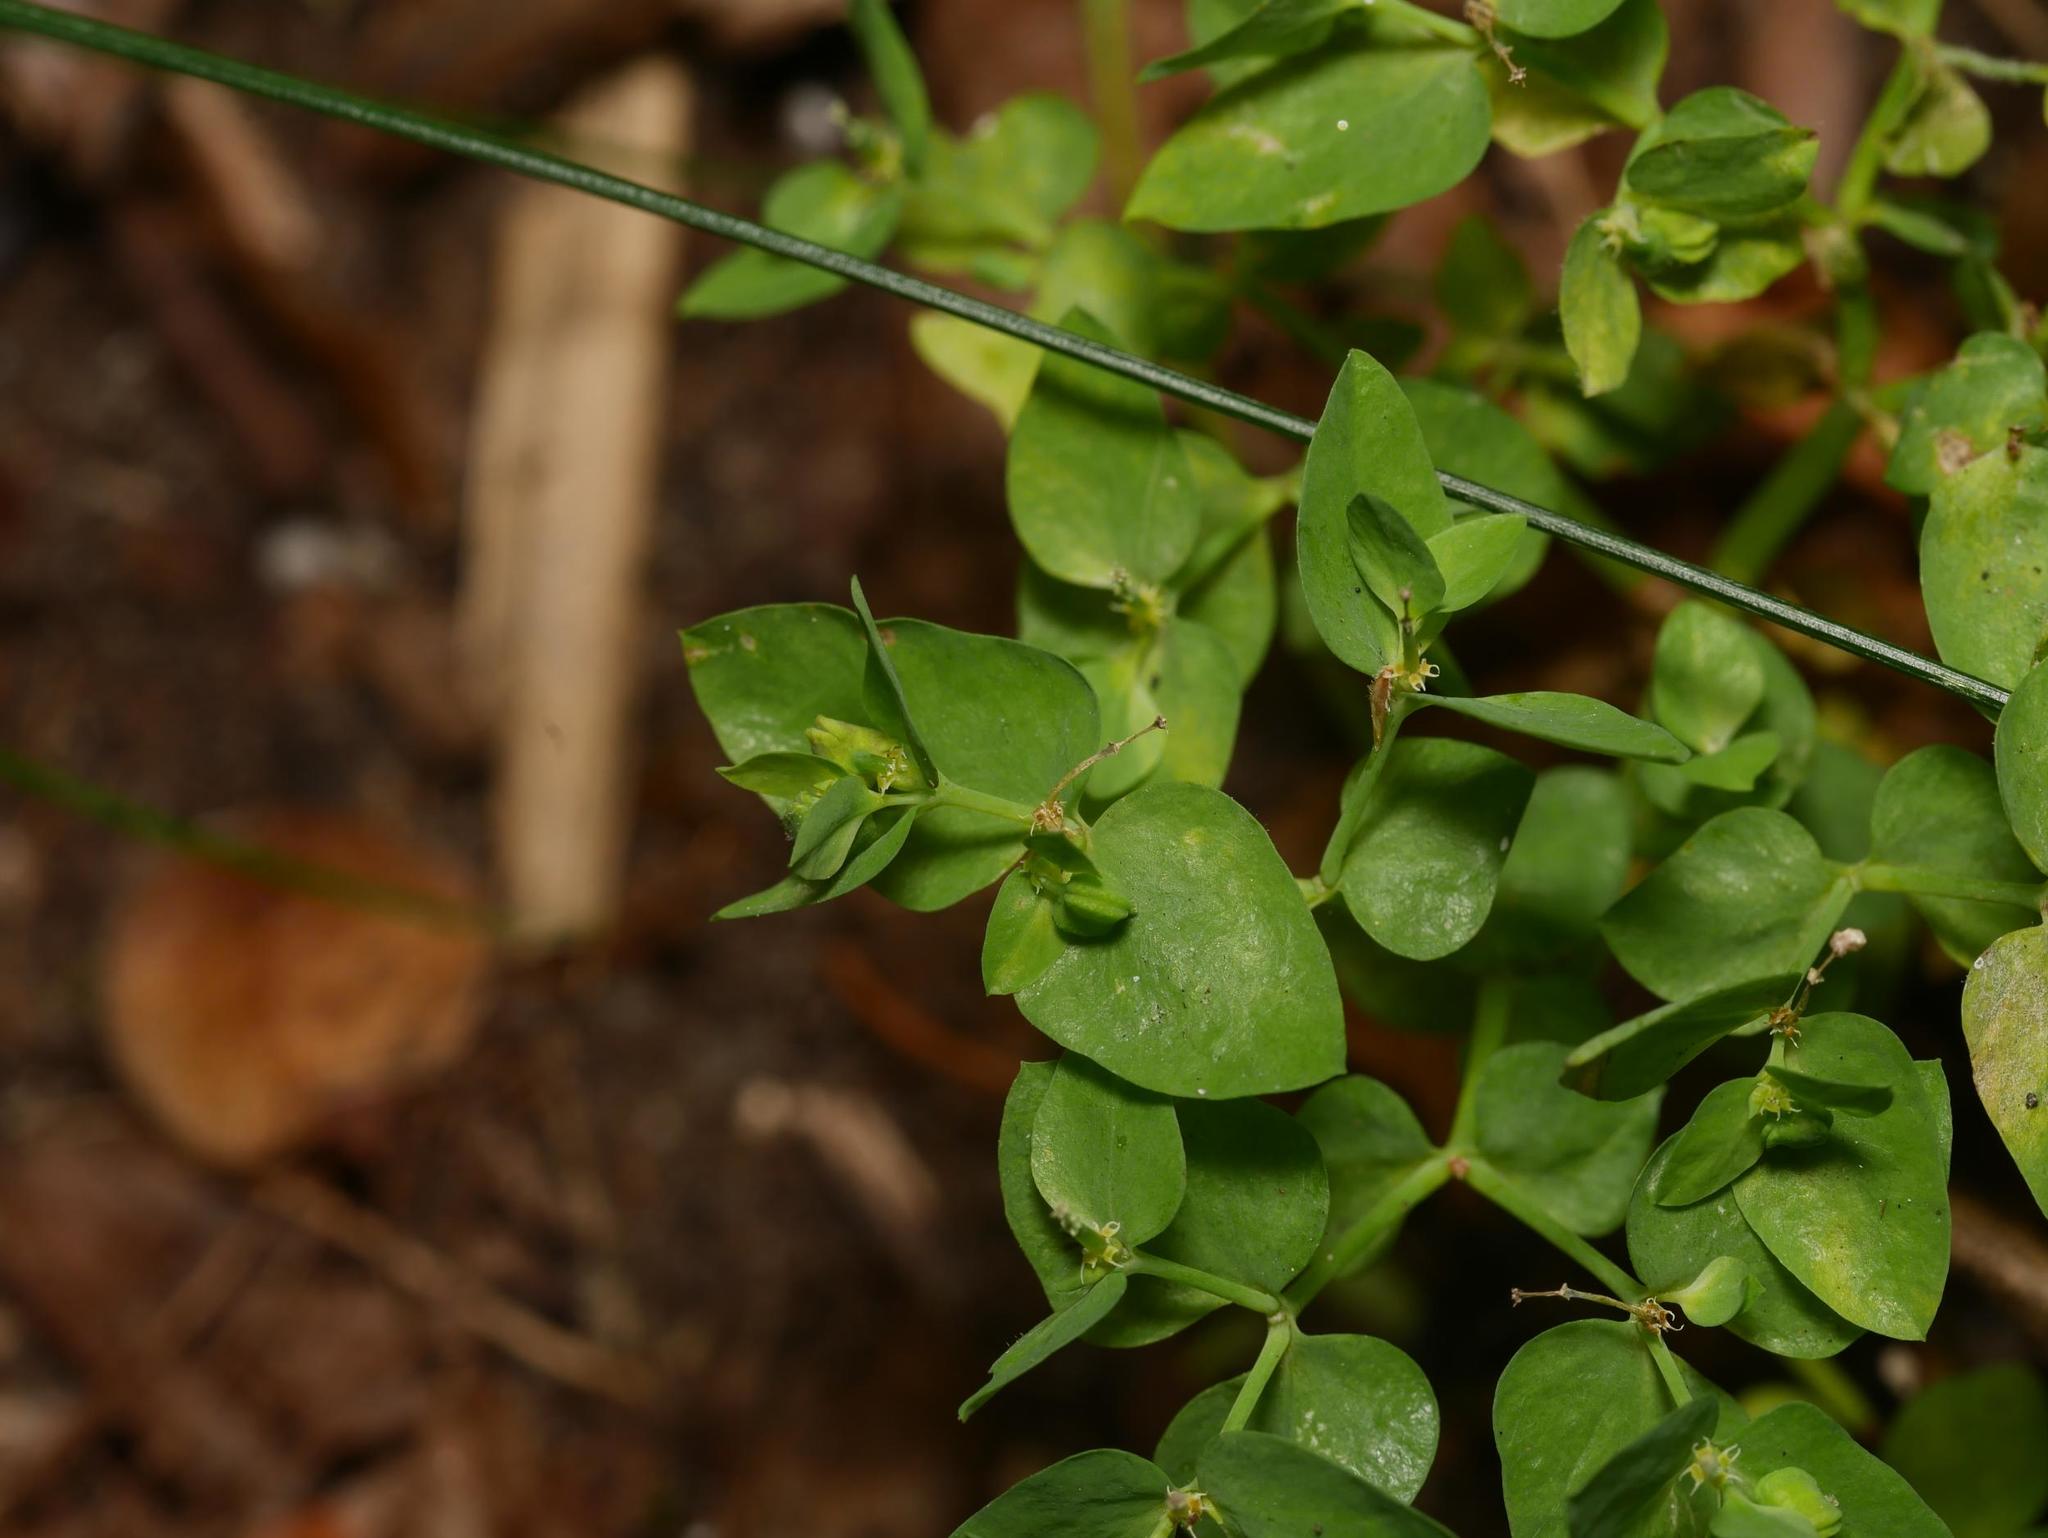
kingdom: Plantae
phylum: Tracheophyta
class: Magnoliopsida
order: Malpighiales
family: Euphorbiaceae
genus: Euphorbia
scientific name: Euphorbia peplus
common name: Petty spurge
